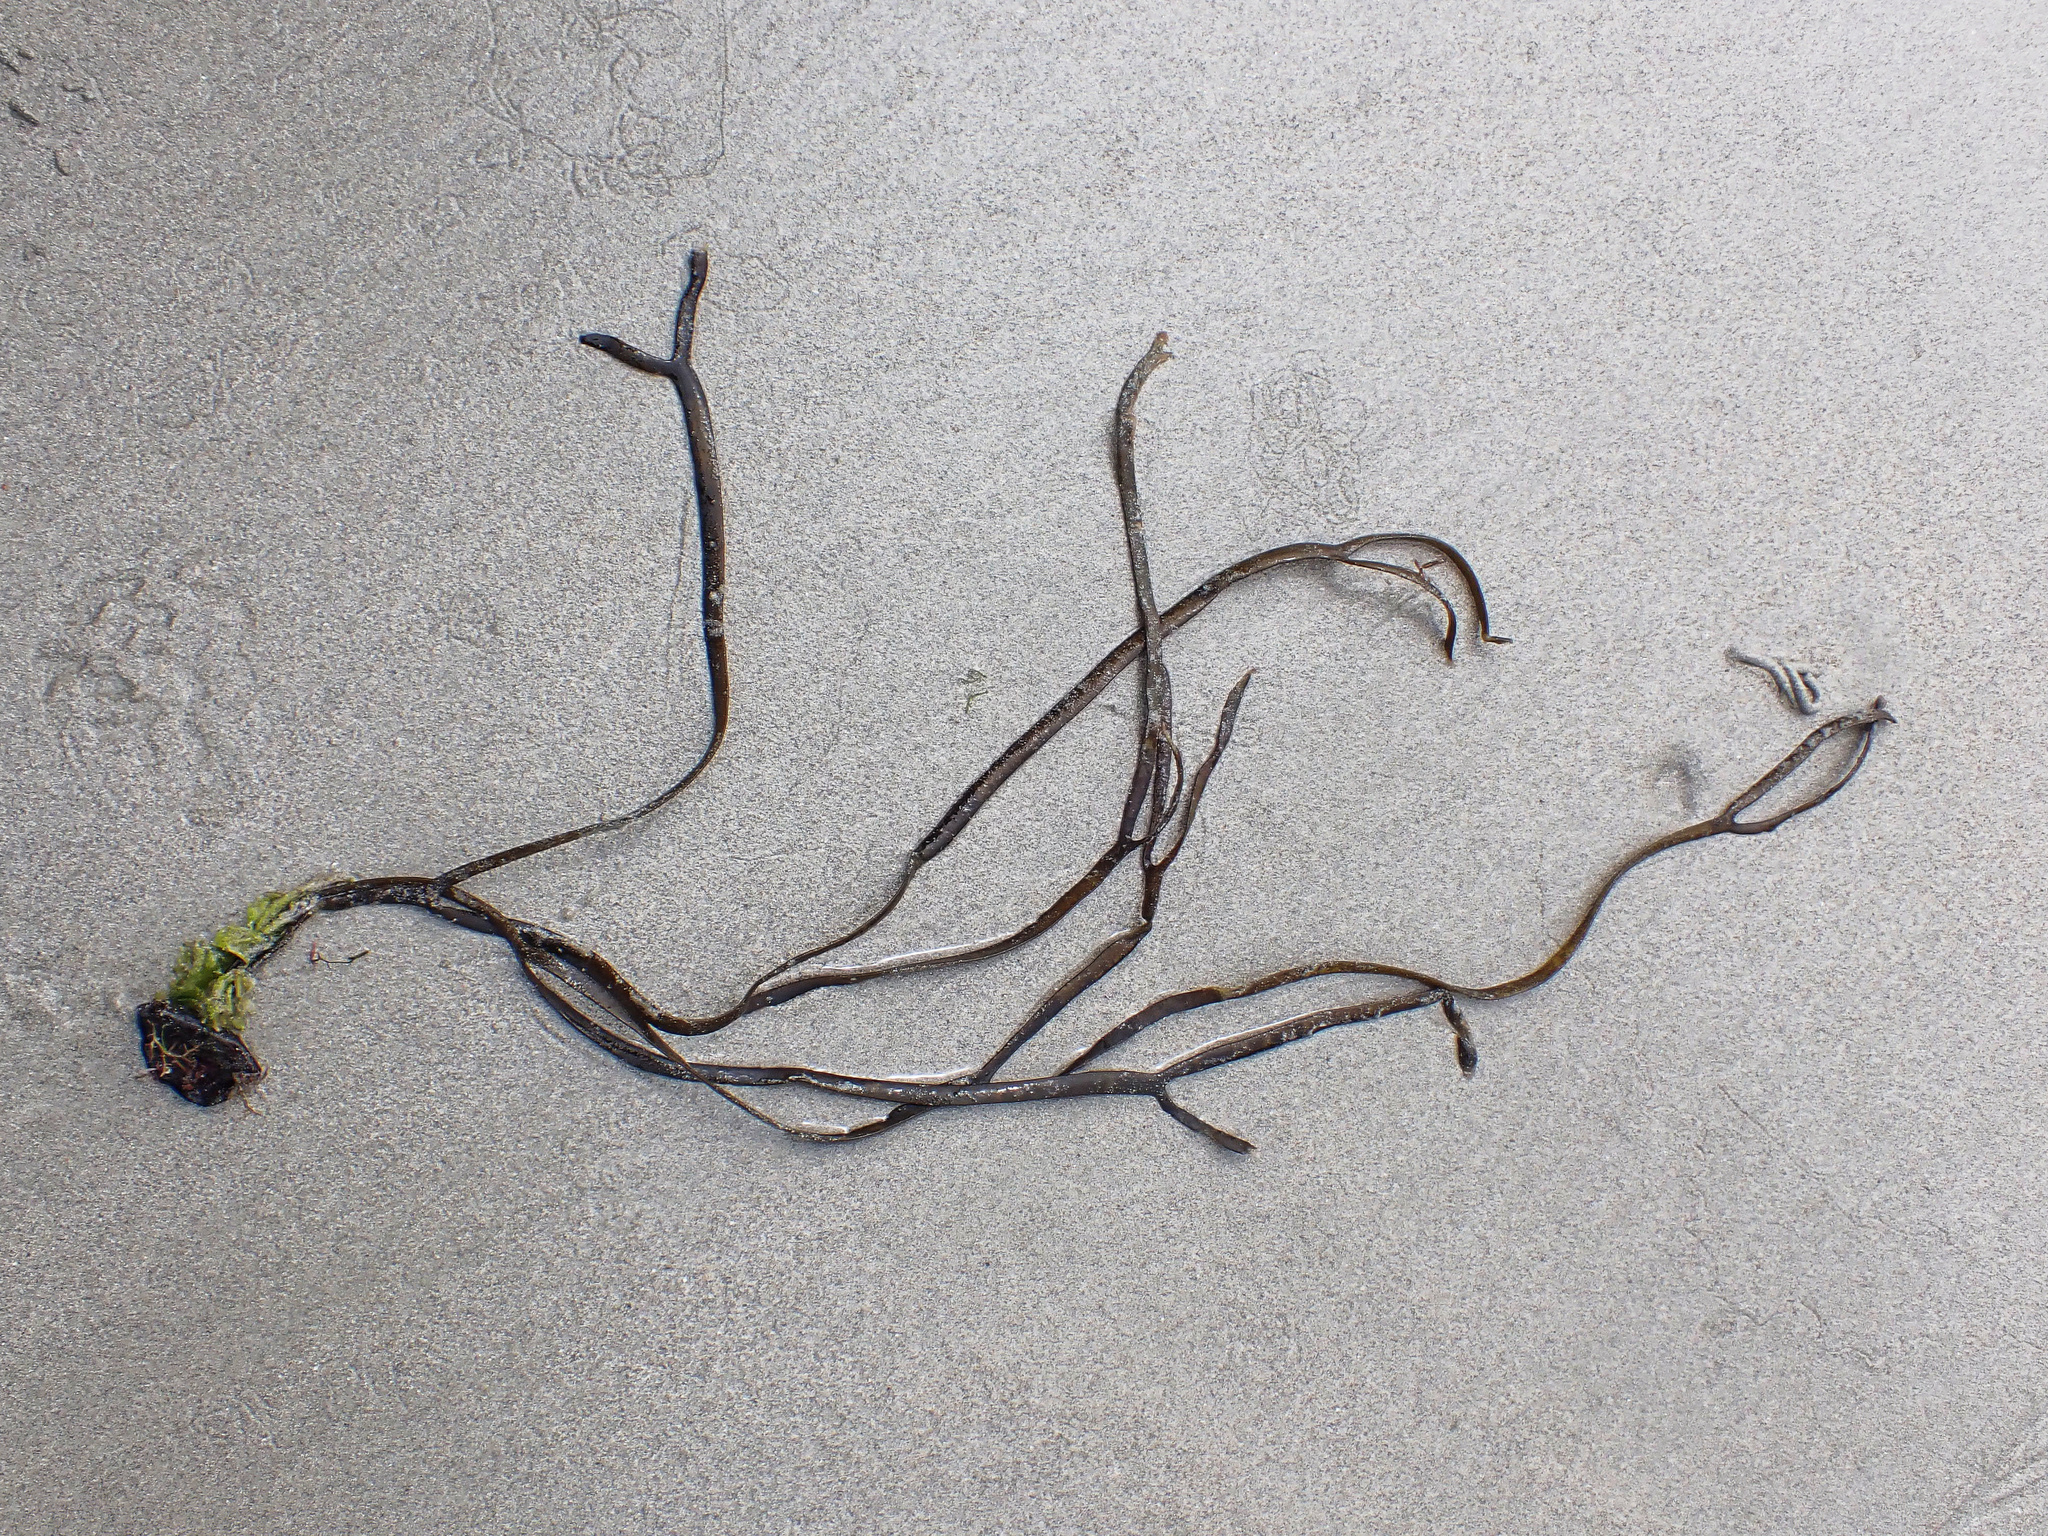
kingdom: Chromista
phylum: Ochrophyta
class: Phaeophyceae
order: Fucales
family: Himanthaliaceae
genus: Himanthalia
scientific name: Himanthalia elongata
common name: Sea-thong
